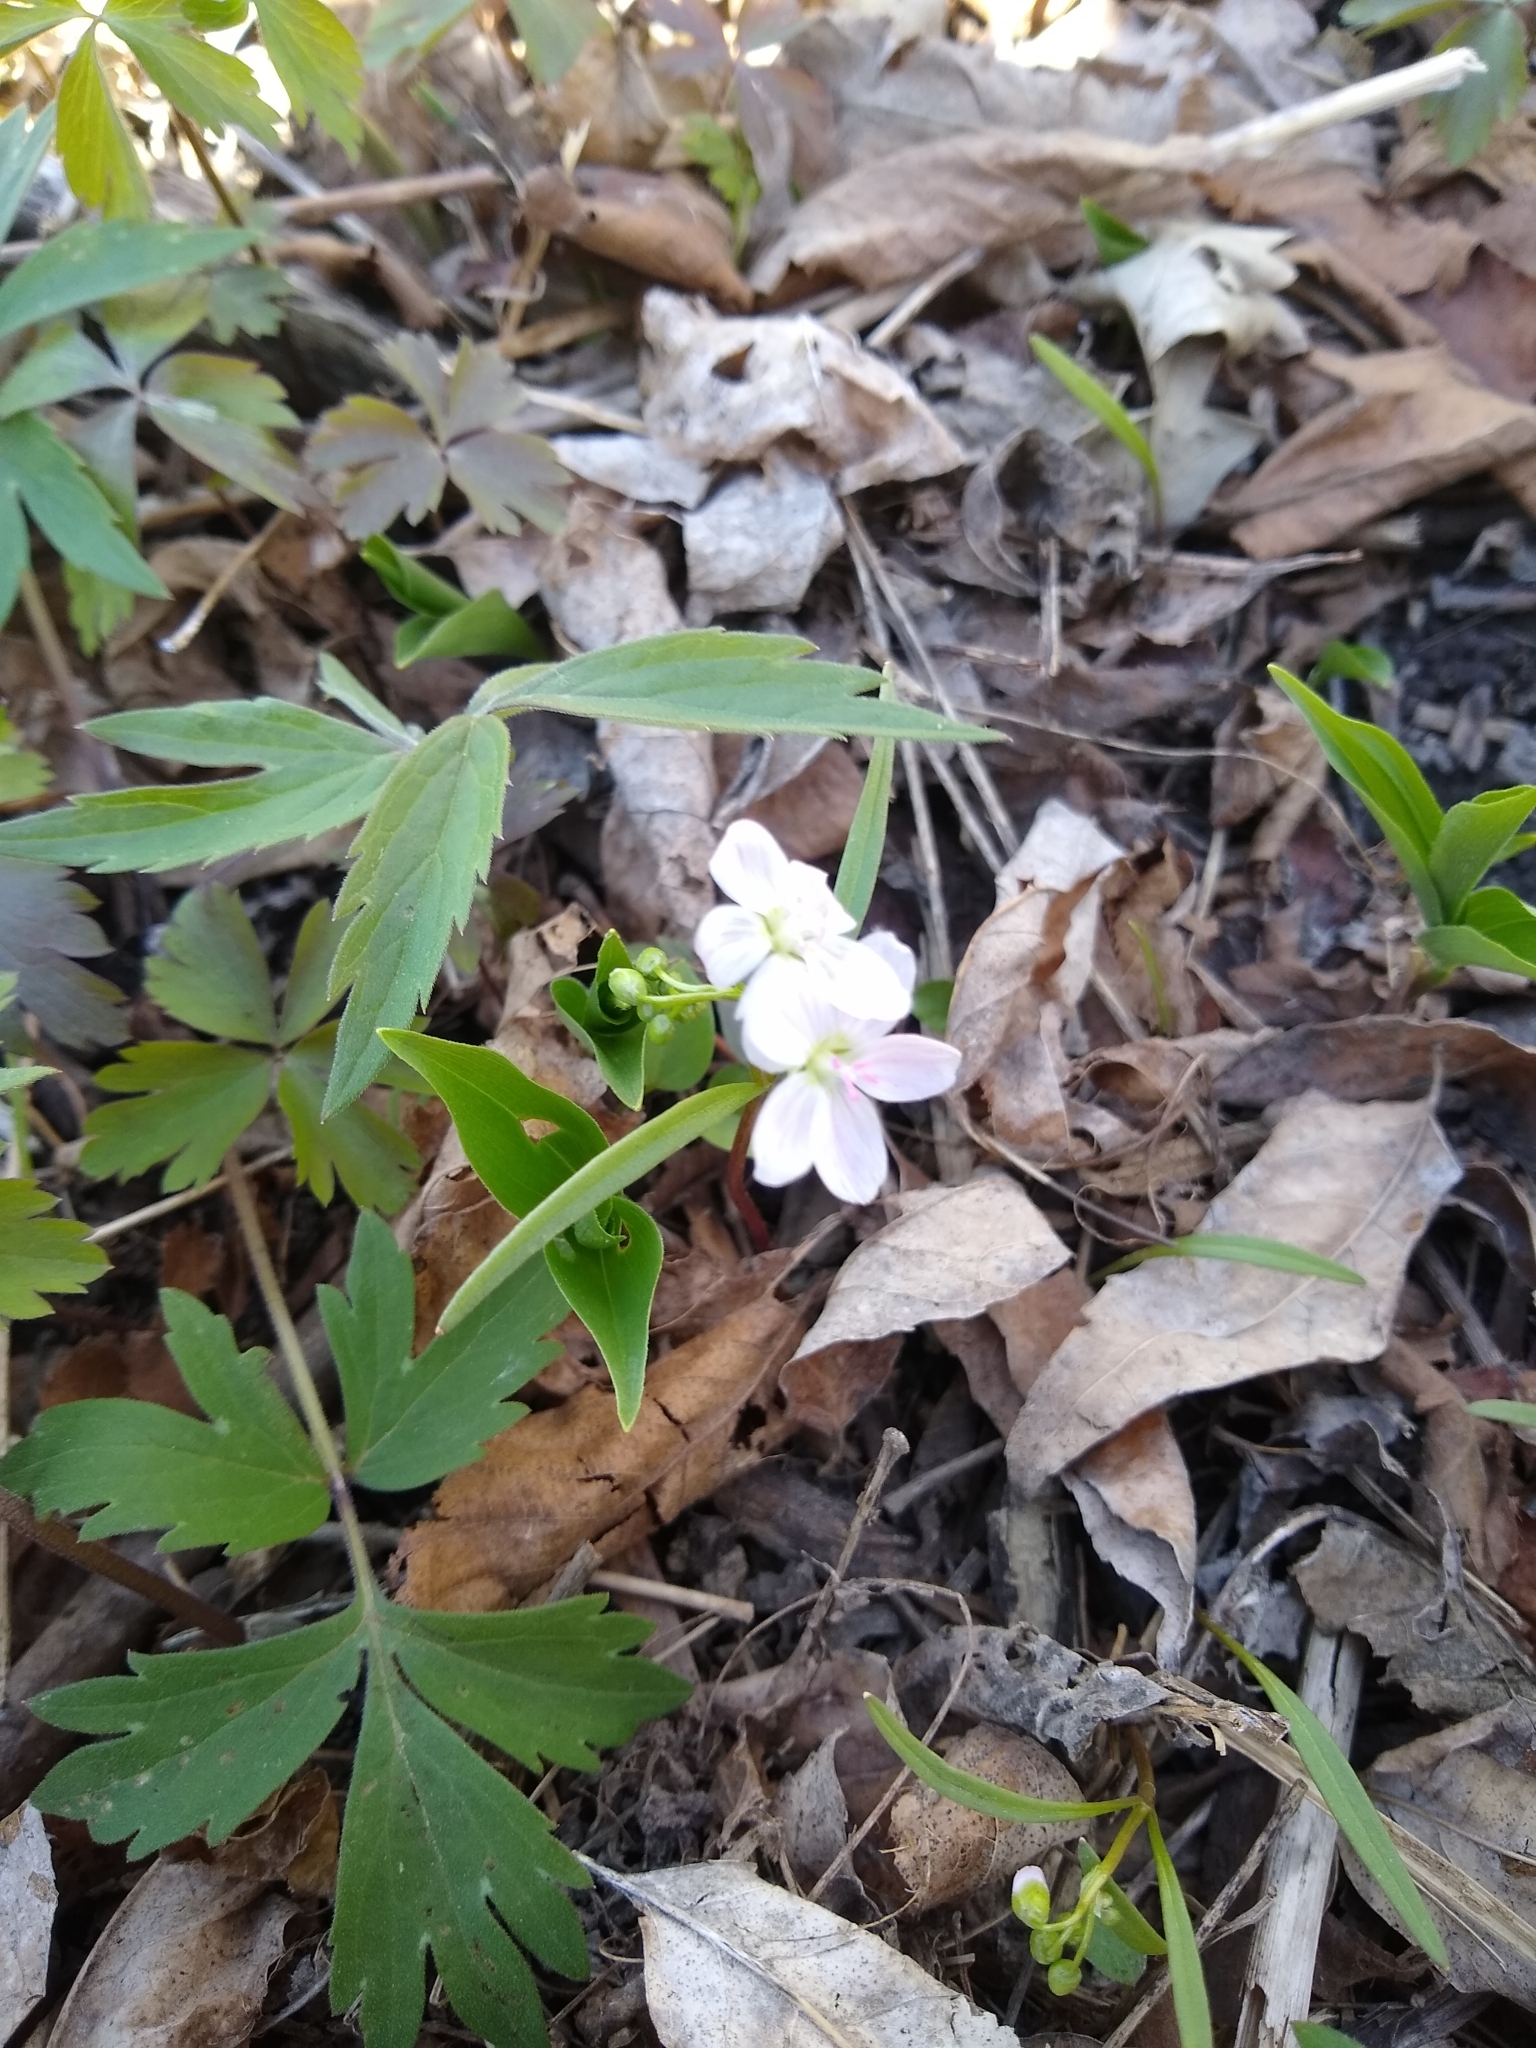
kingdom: Plantae
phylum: Tracheophyta
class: Magnoliopsida
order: Caryophyllales
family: Montiaceae
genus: Claytonia
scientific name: Claytonia virginica
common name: Virginia springbeauty
